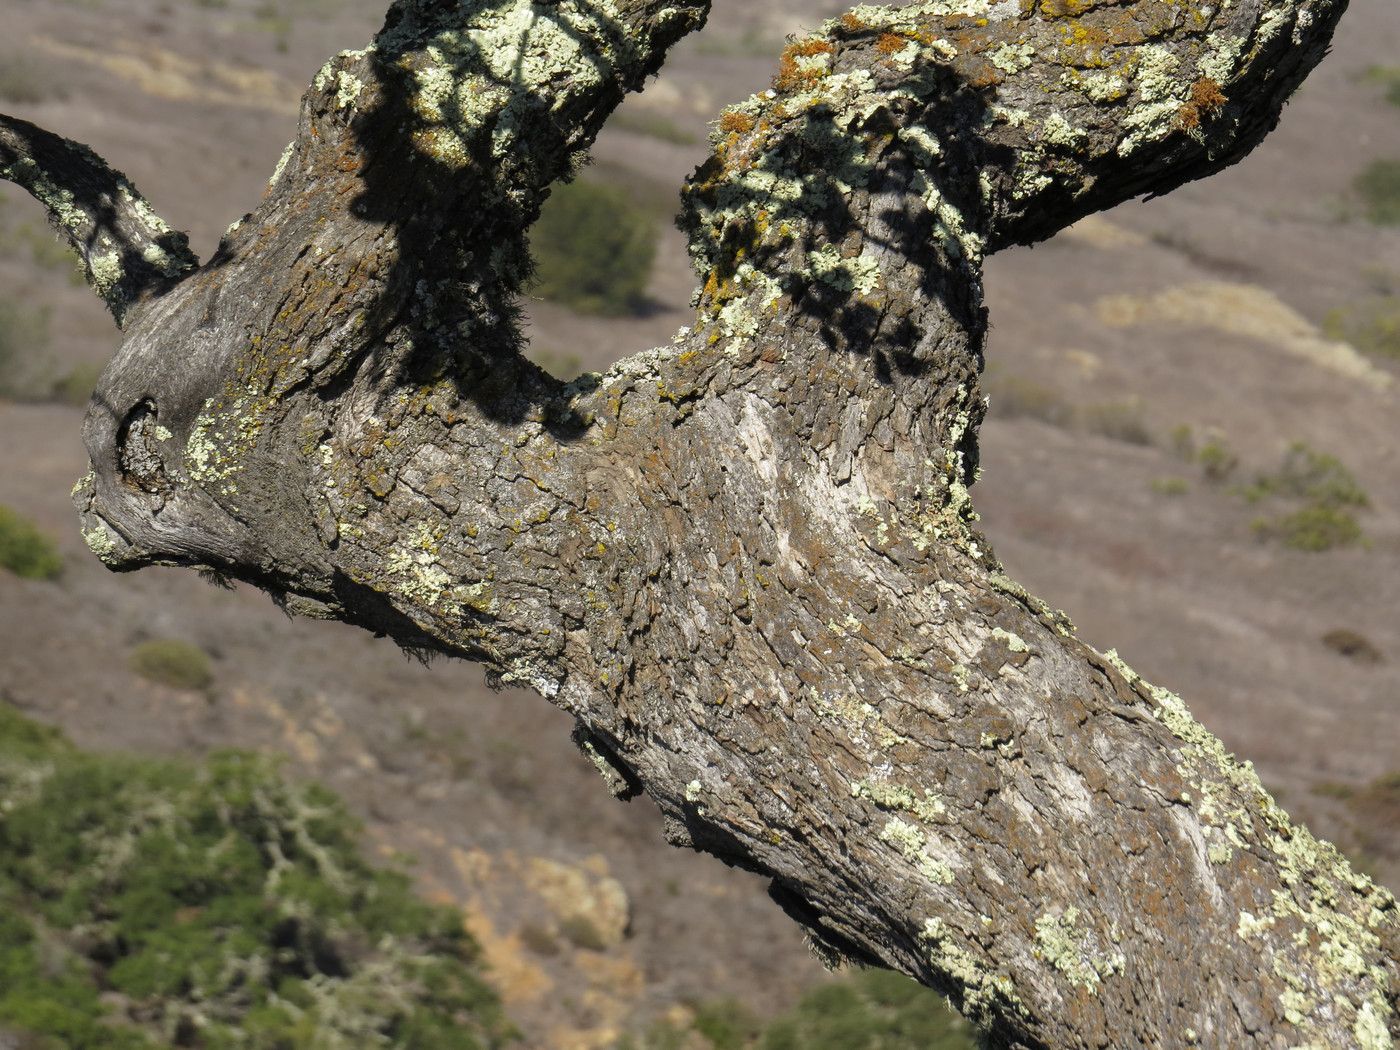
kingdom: Plantae
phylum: Tracheophyta
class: Magnoliopsida
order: Fagales
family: Fagaceae
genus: Quercus
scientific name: Quercus pacifica
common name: Channel island scrub oak
